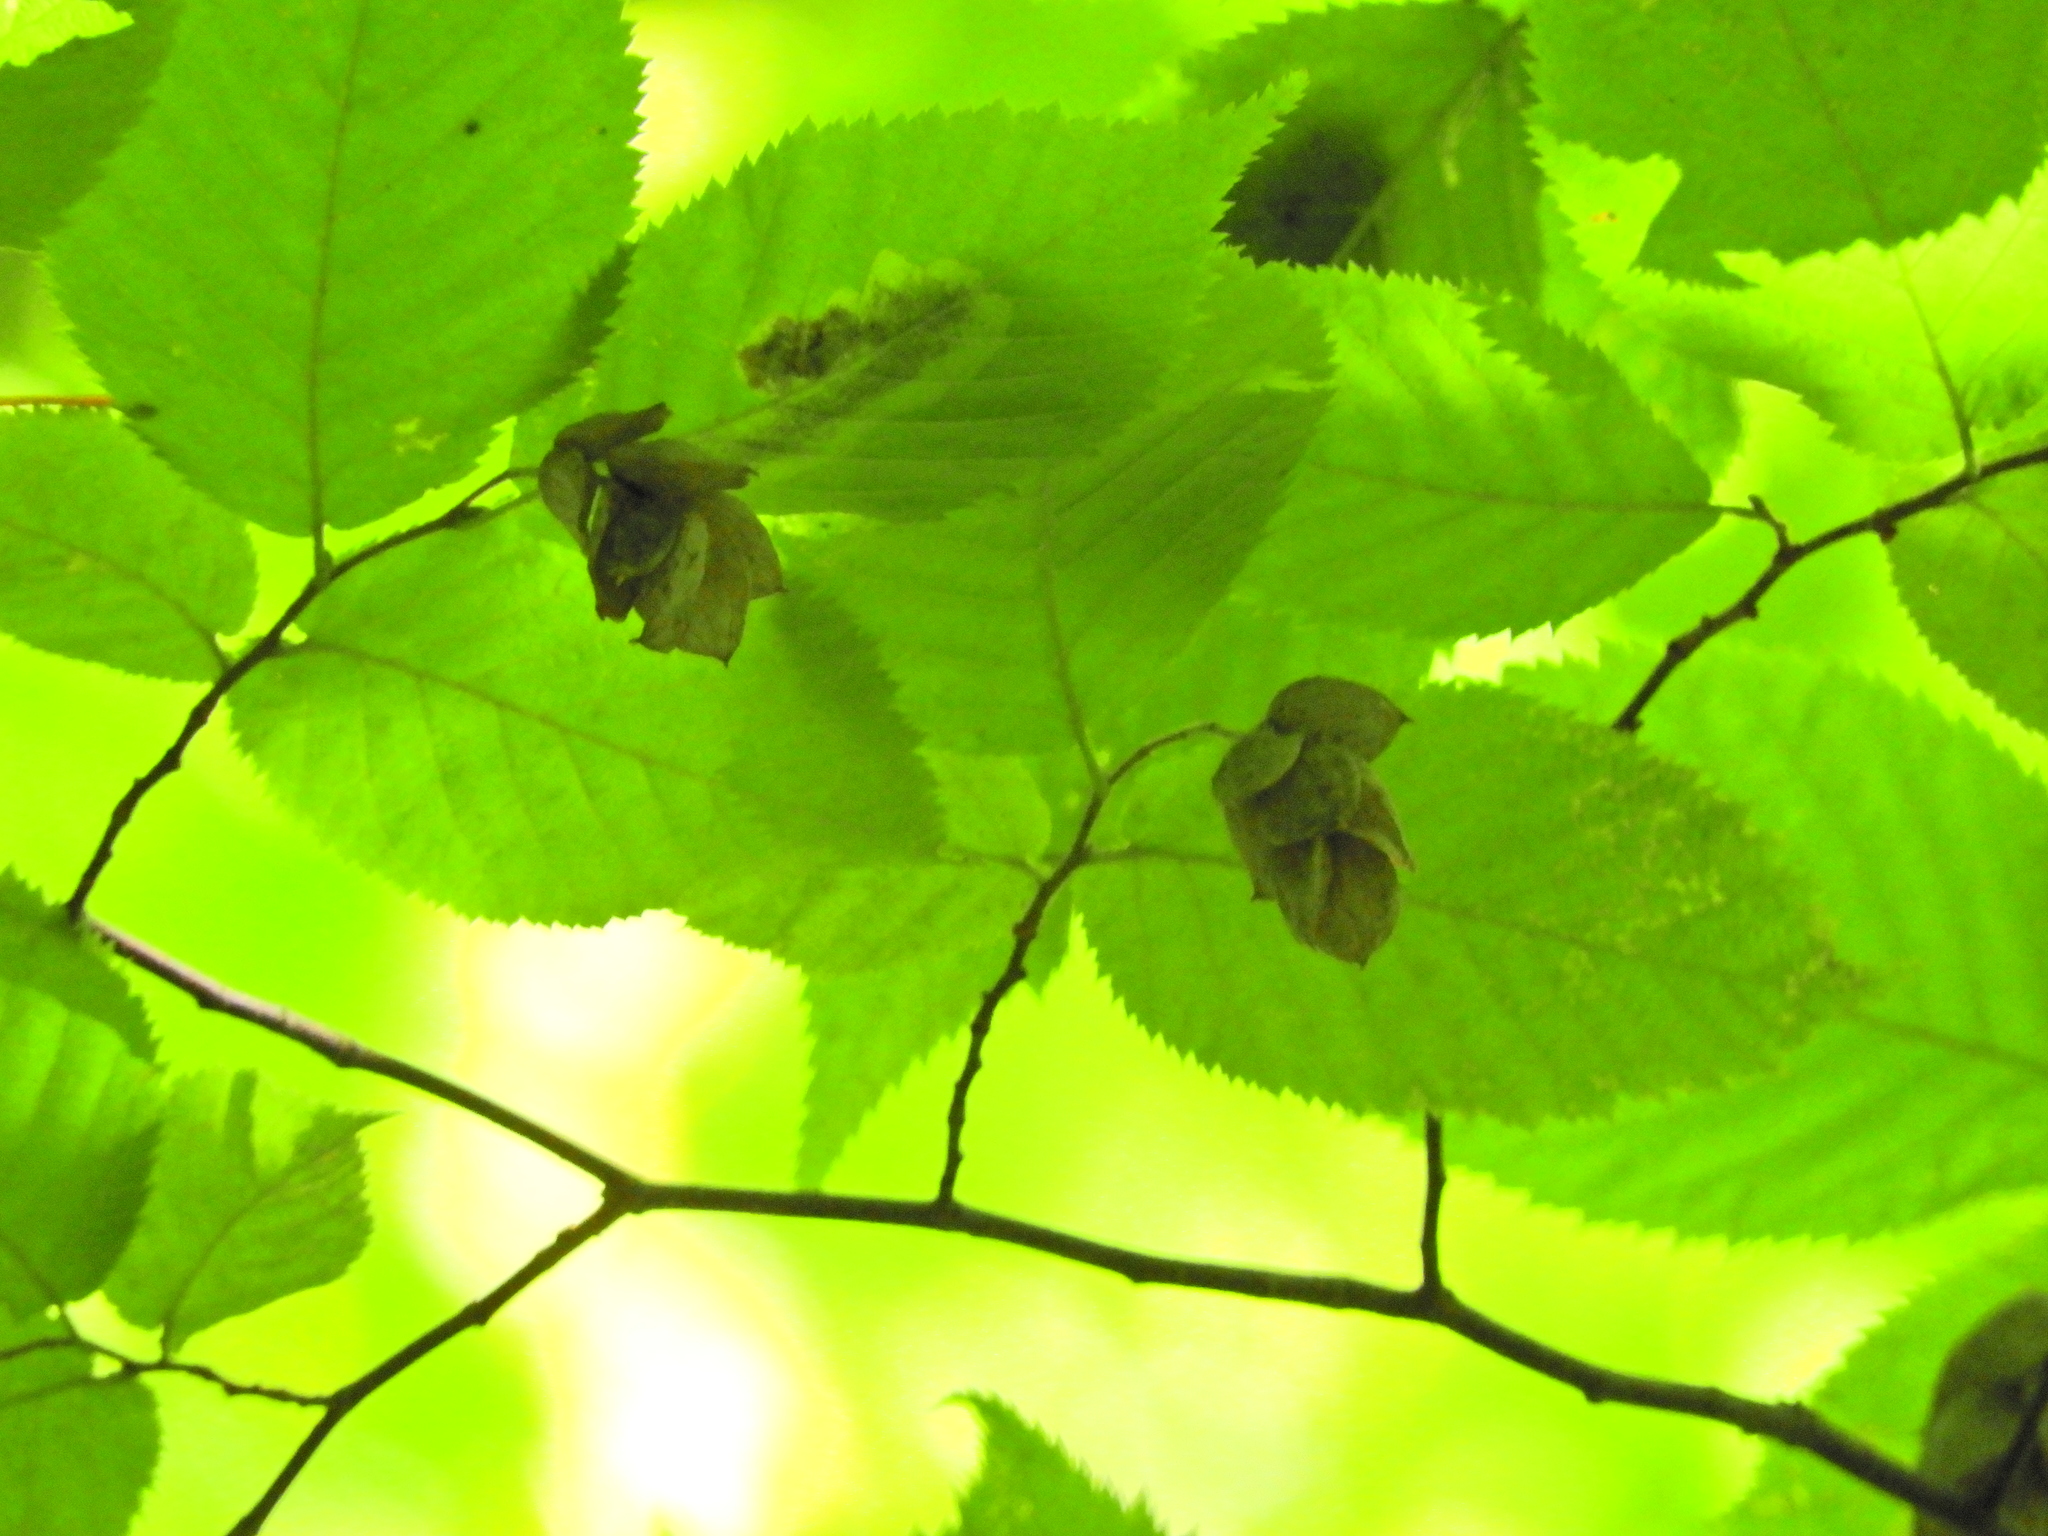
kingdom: Plantae
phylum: Tracheophyta
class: Magnoliopsida
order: Fagales
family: Betulaceae
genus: Ostrya
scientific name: Ostrya virginiana
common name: Ironwood
